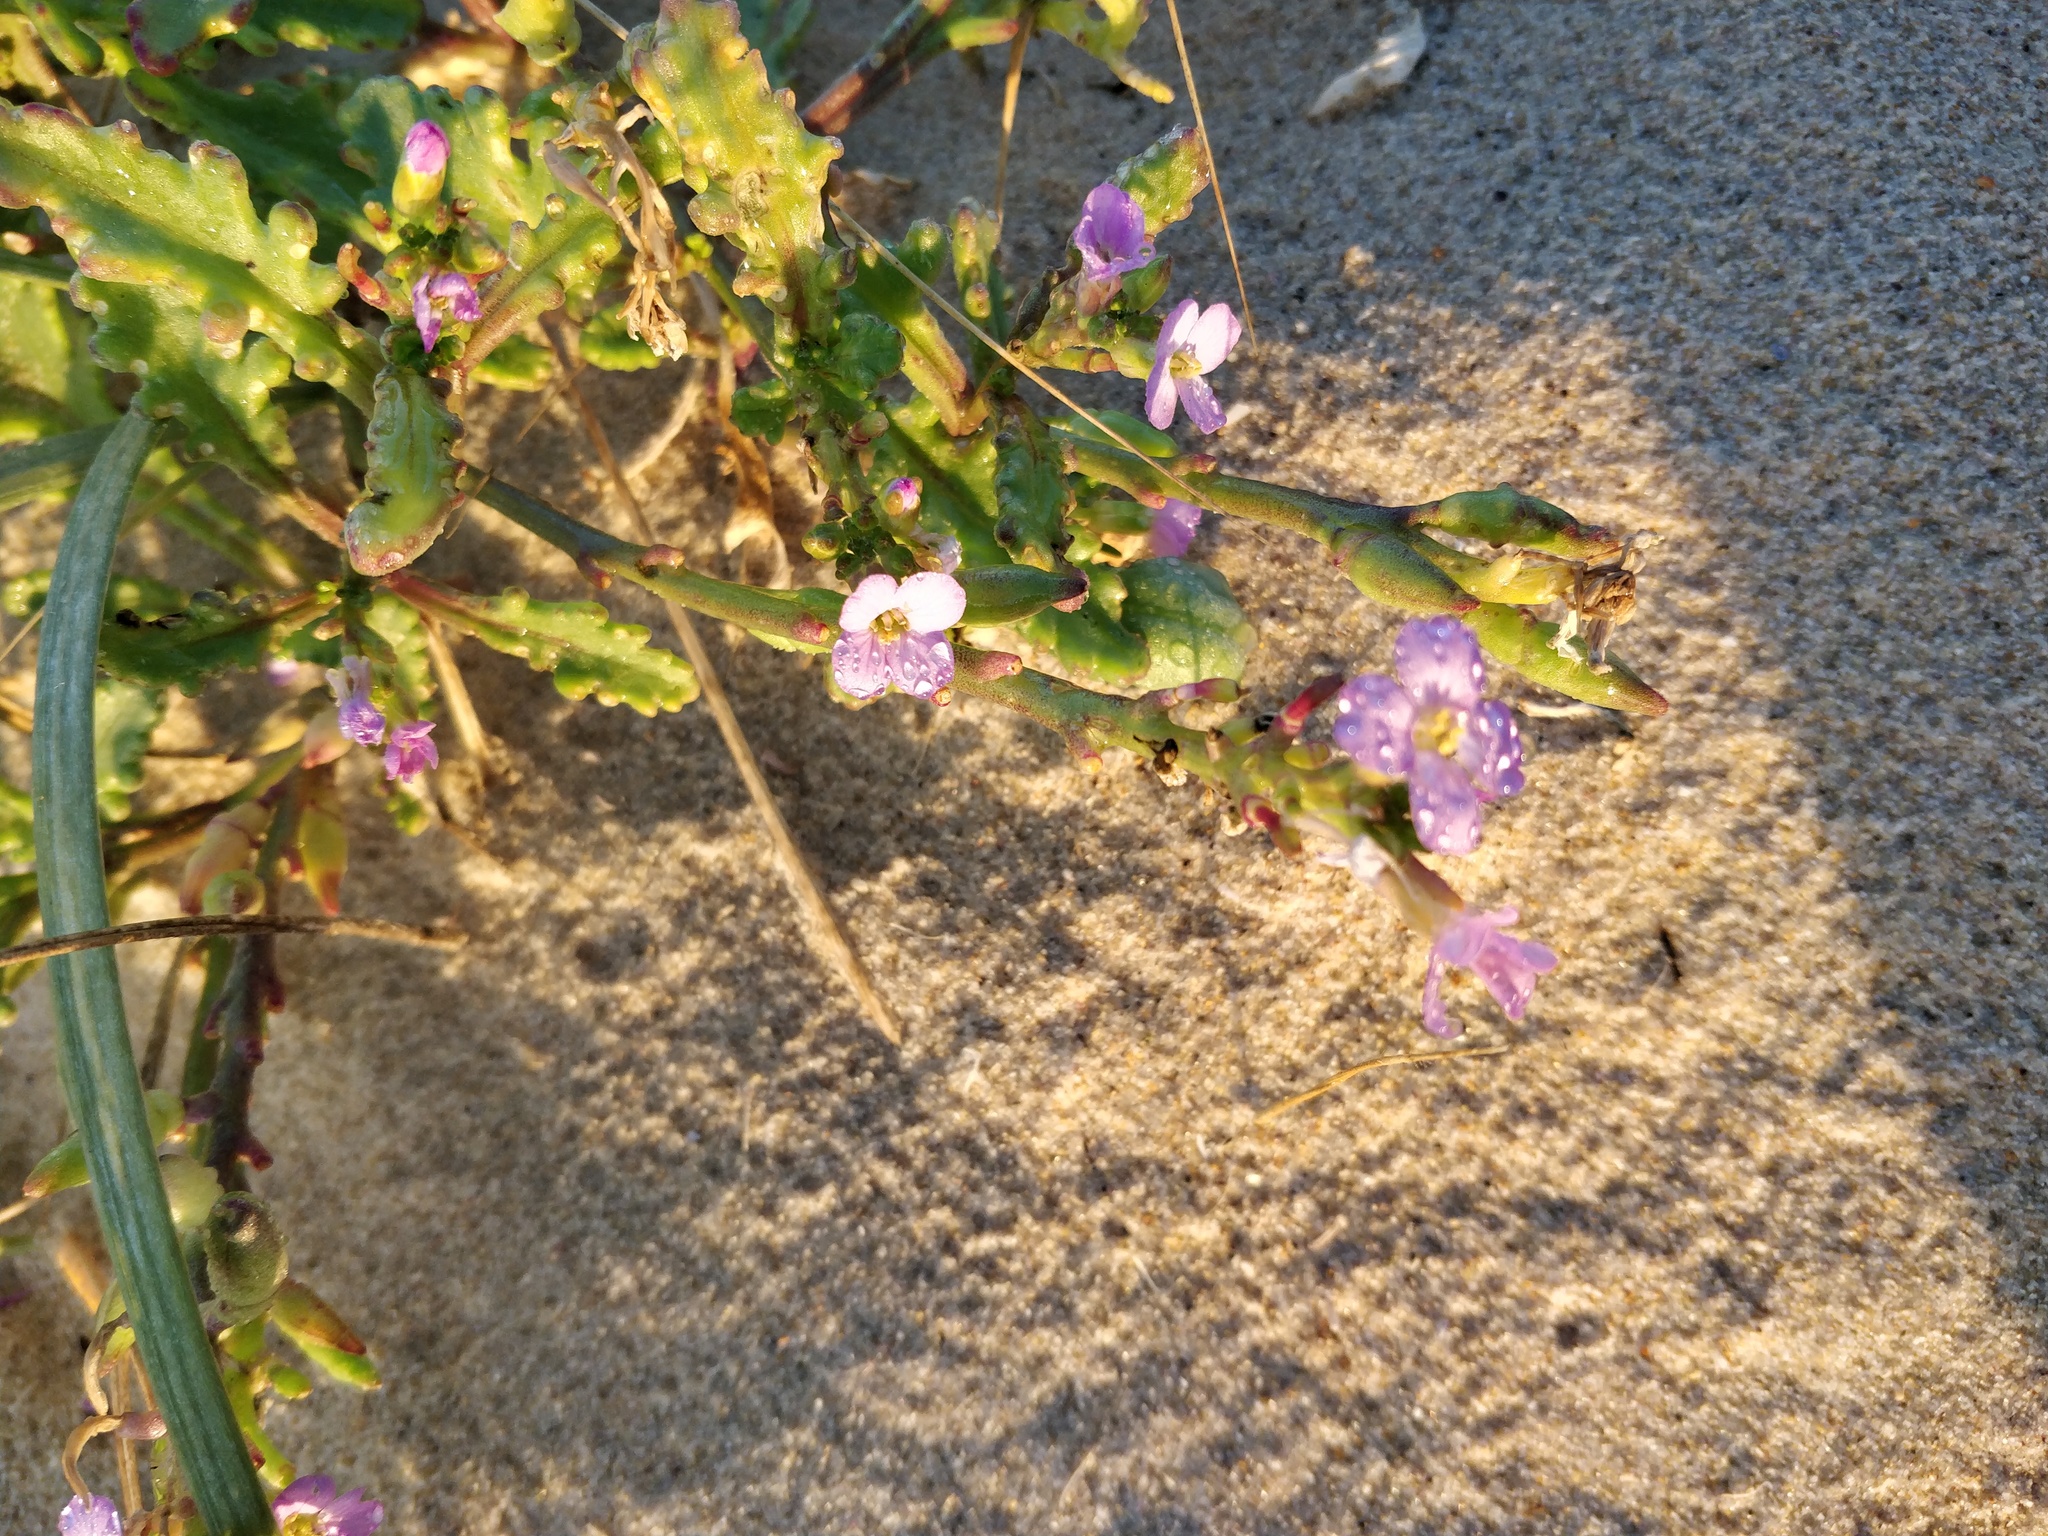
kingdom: Plantae
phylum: Tracheophyta
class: Magnoliopsida
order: Brassicales
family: Brassicaceae
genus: Cakile
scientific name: Cakile maritima
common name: Sea rocket
